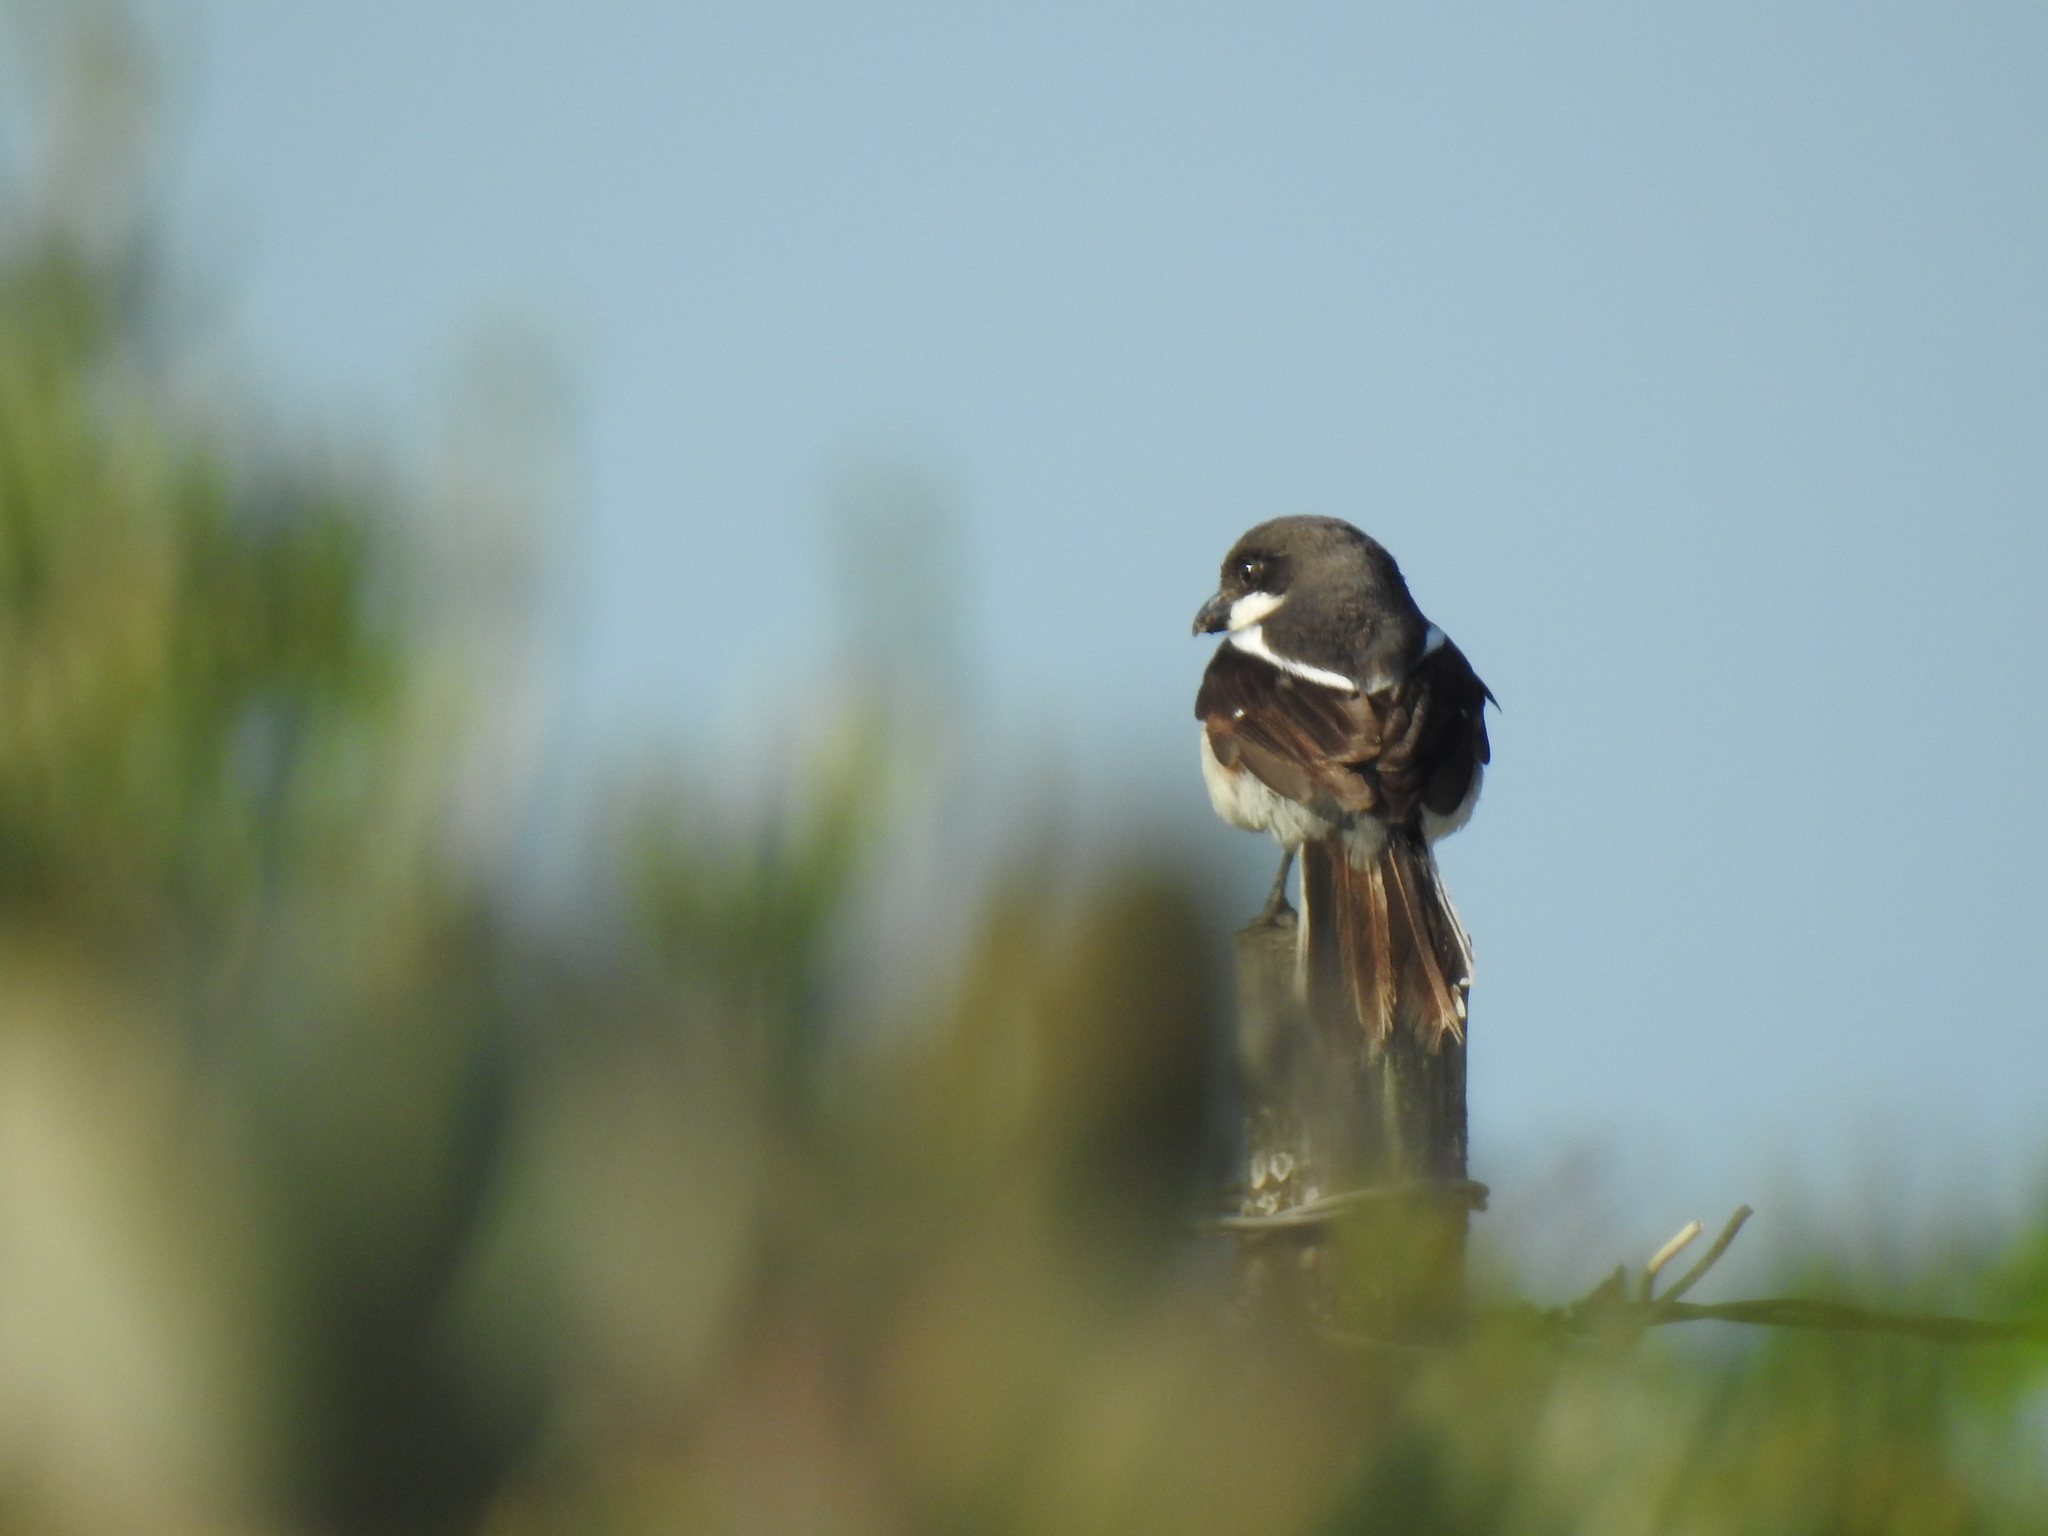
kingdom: Animalia
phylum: Chordata
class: Aves
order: Passeriformes
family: Laniidae
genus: Lanius
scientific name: Lanius collaris
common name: Southern fiscal
